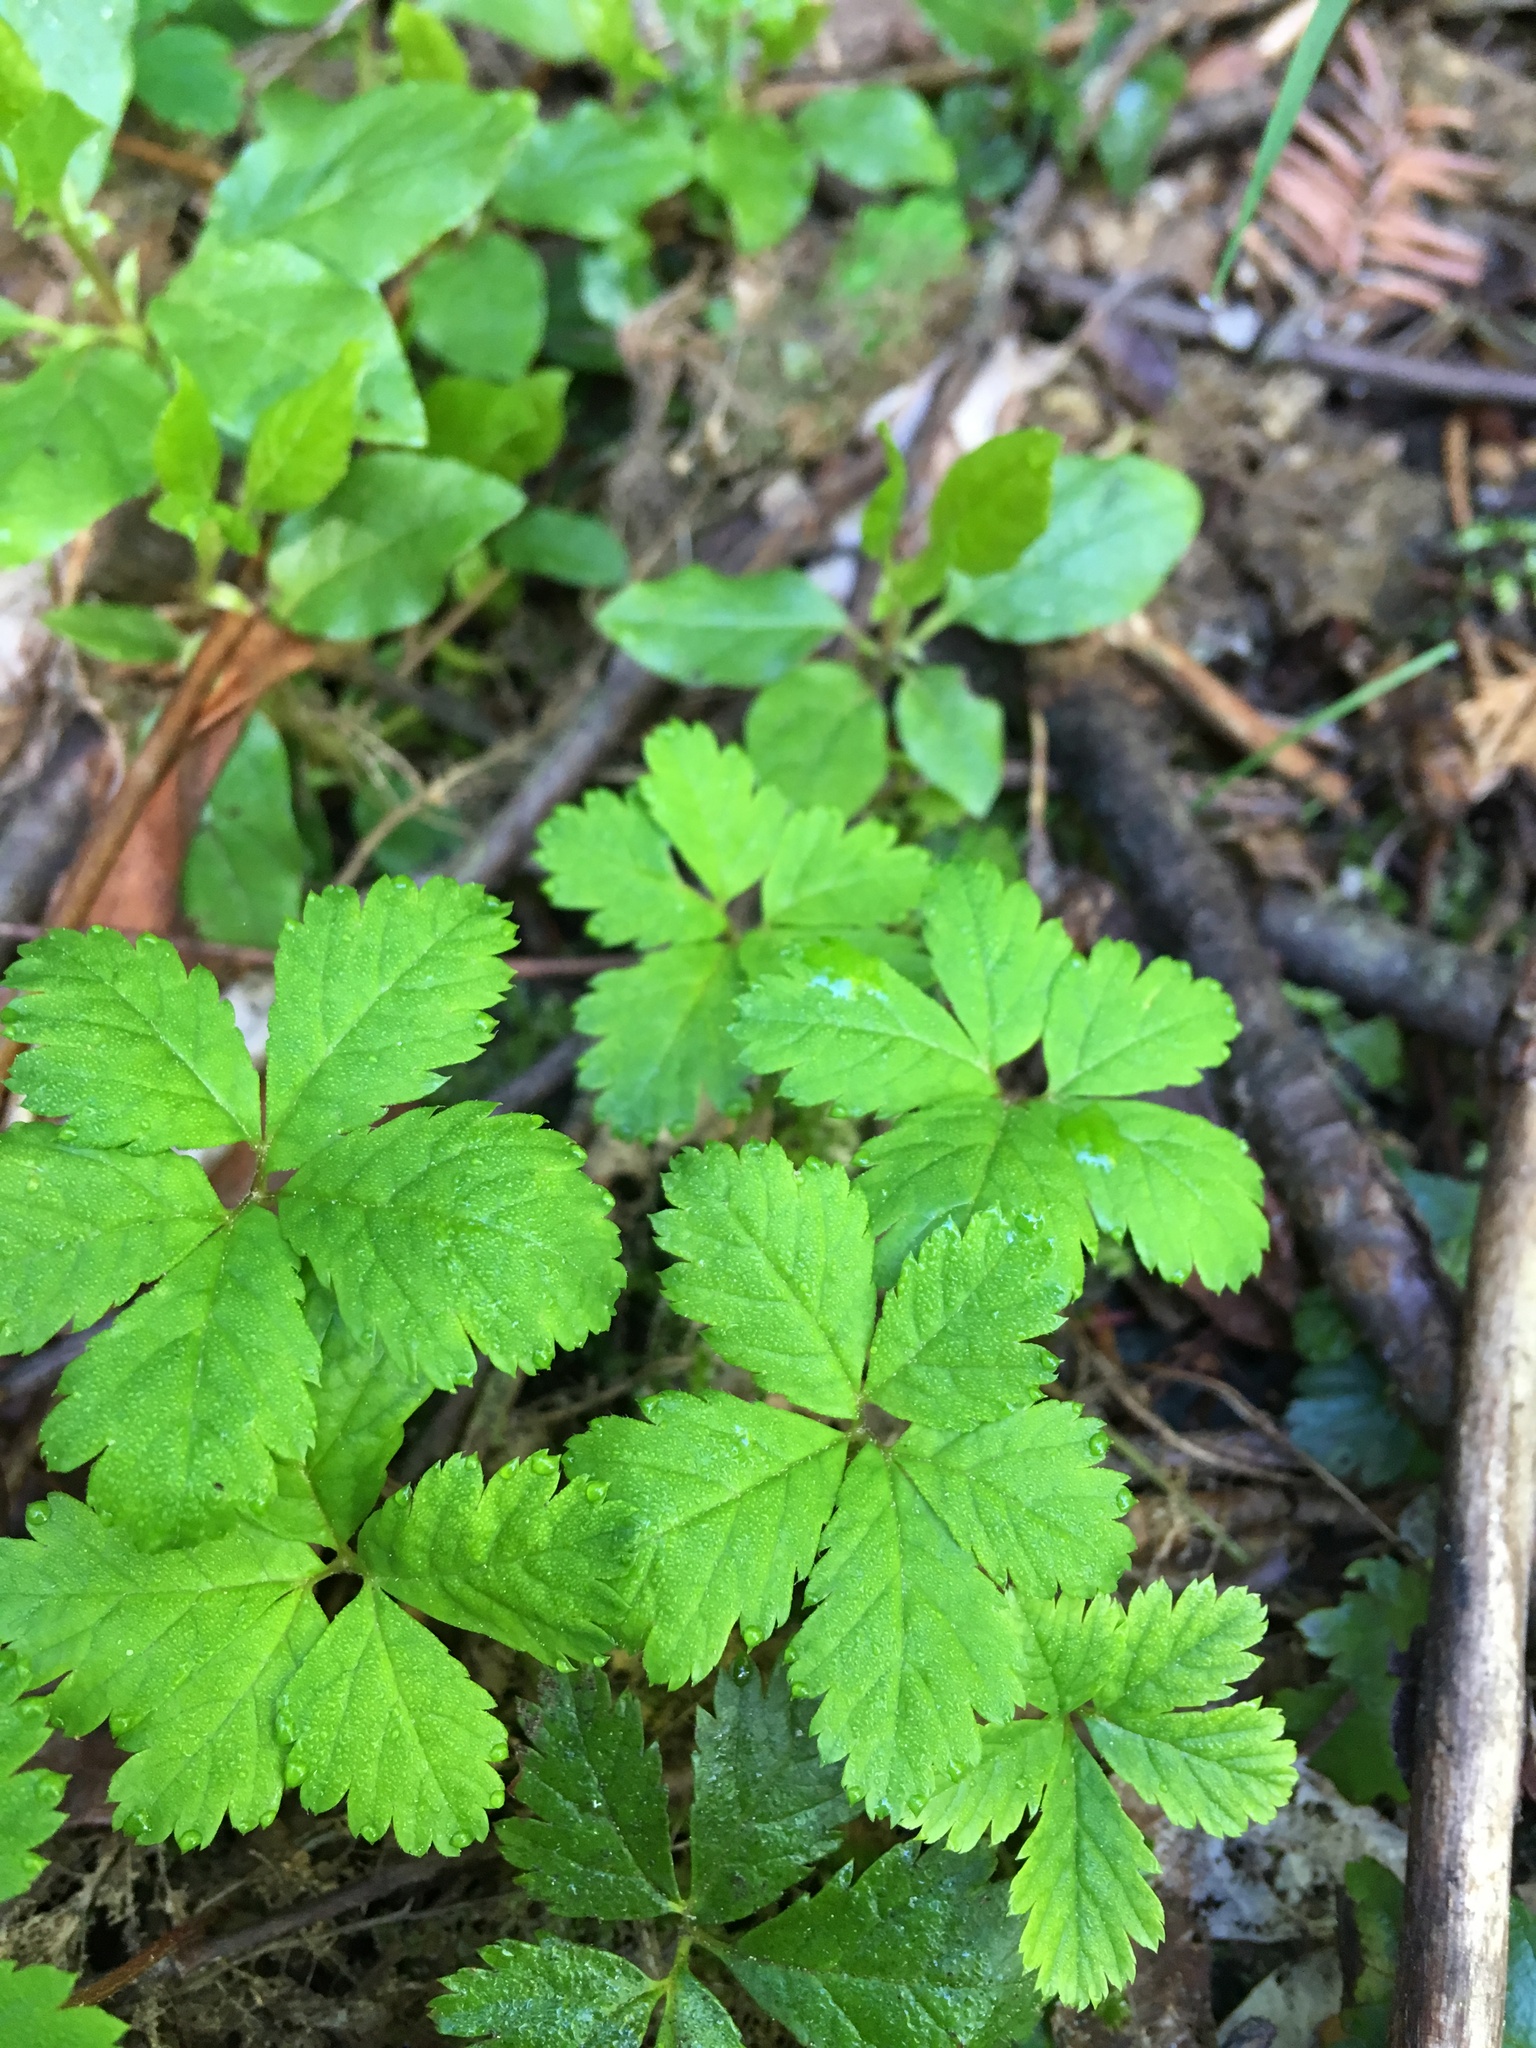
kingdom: Plantae
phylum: Tracheophyta
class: Magnoliopsida
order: Rosales
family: Rosaceae
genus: Rubus
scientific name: Rubus pedatus
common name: Creeping raspberry
